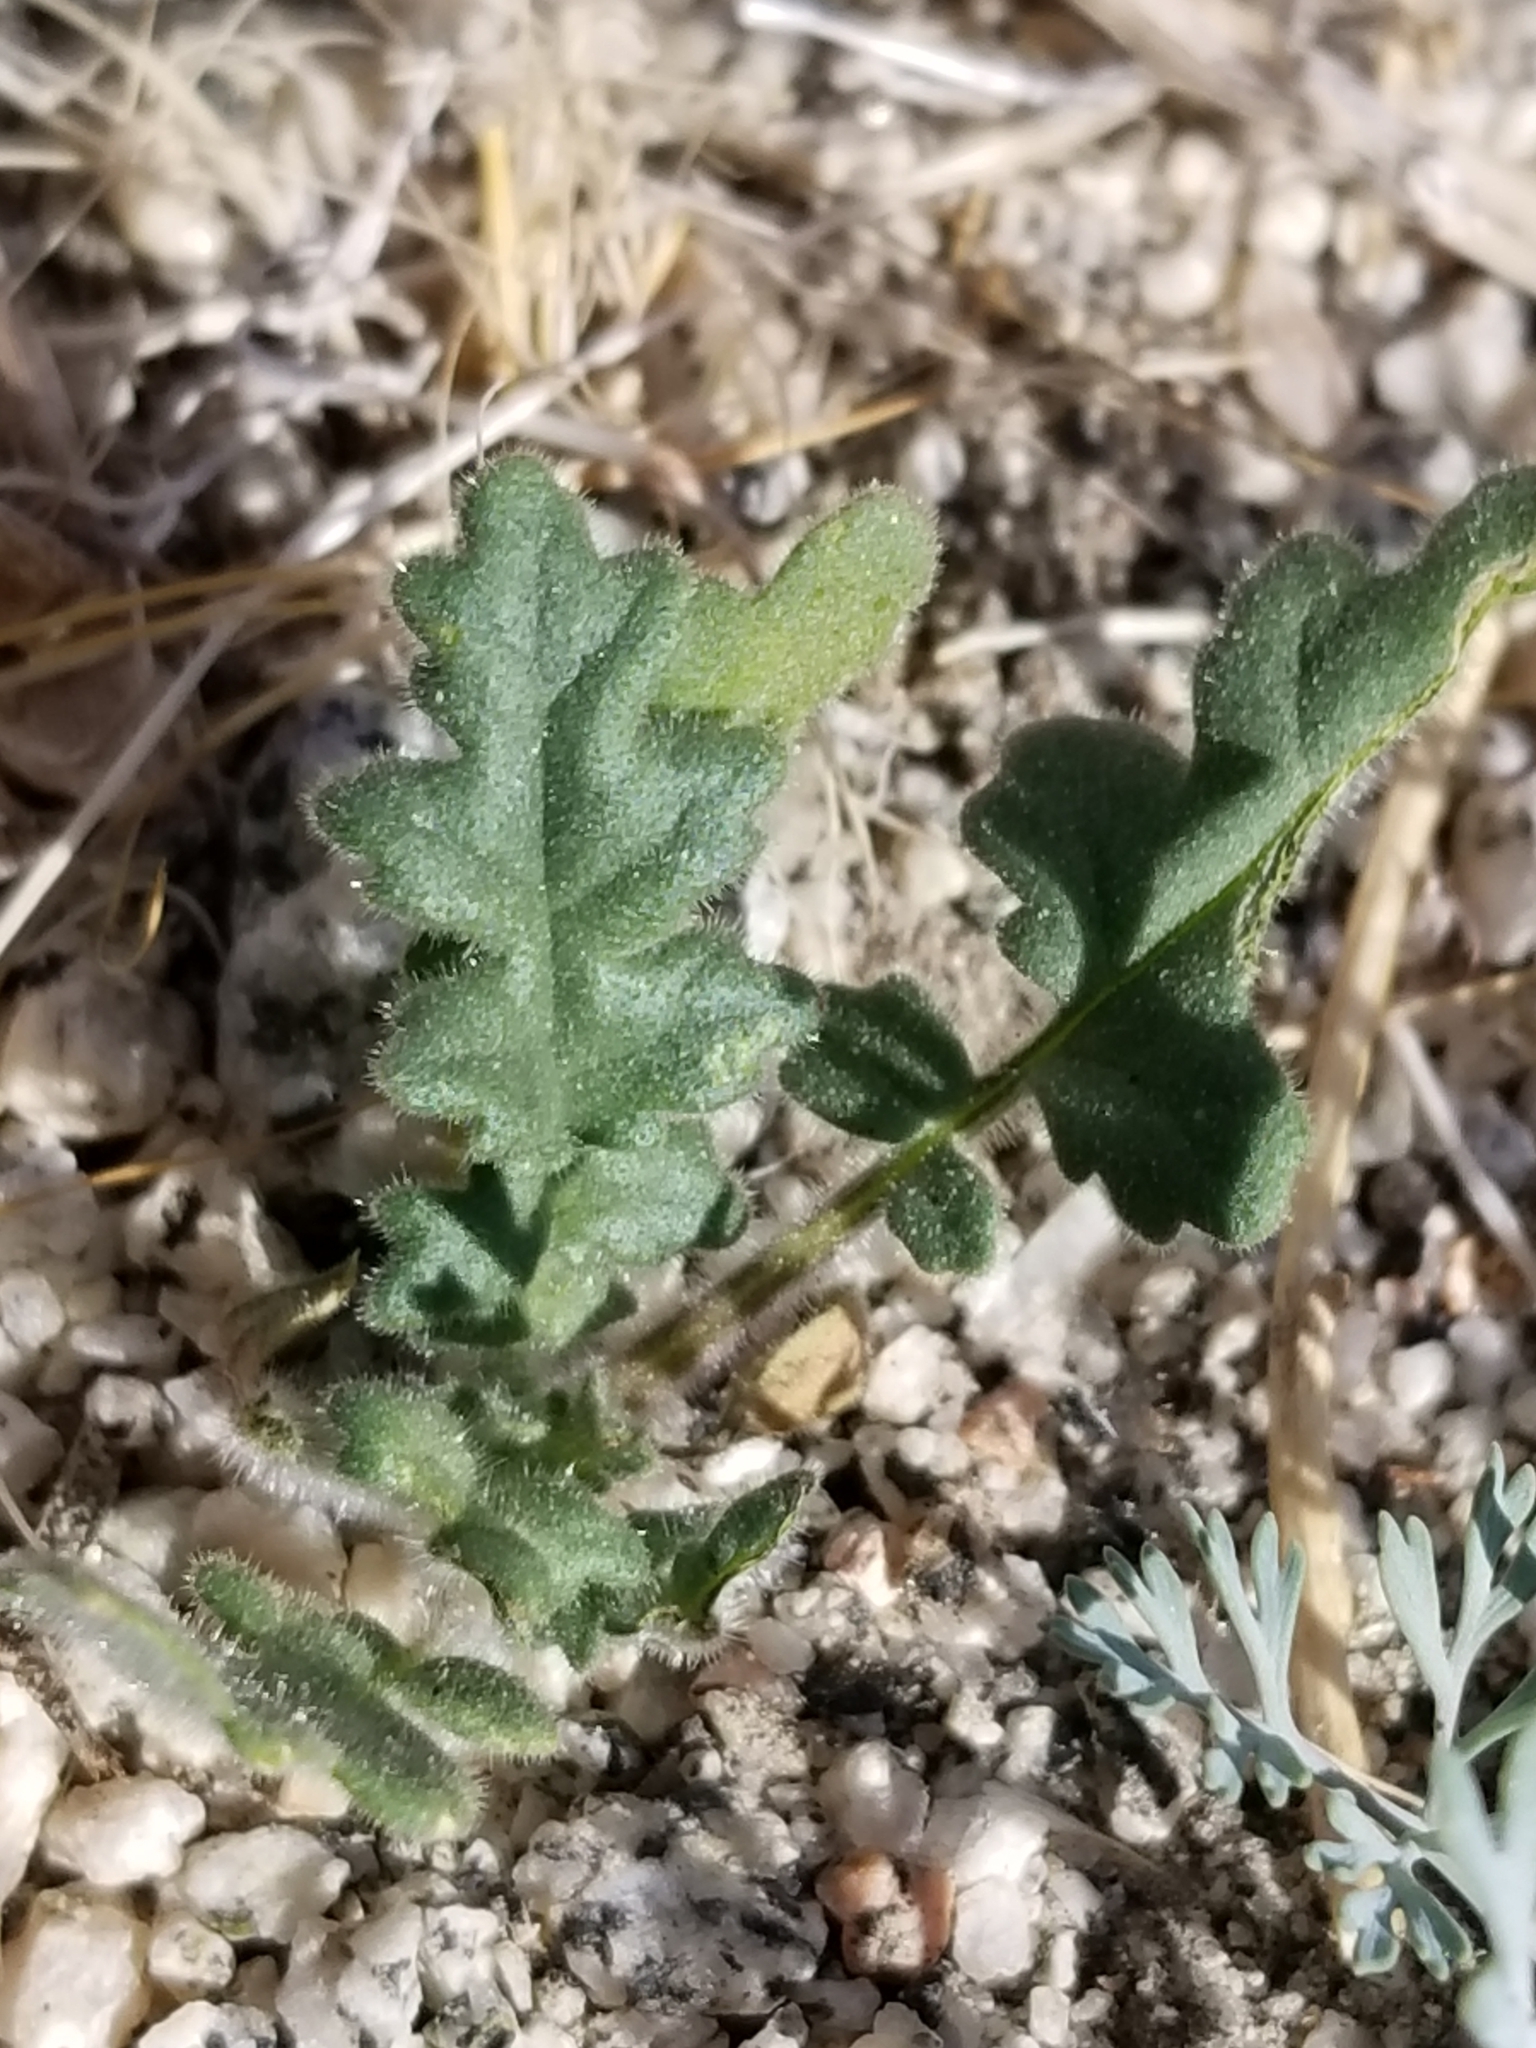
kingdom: Plantae
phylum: Tracheophyta
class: Magnoliopsida
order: Boraginales
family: Hydrophyllaceae
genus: Phacelia
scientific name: Phacelia crenulata
